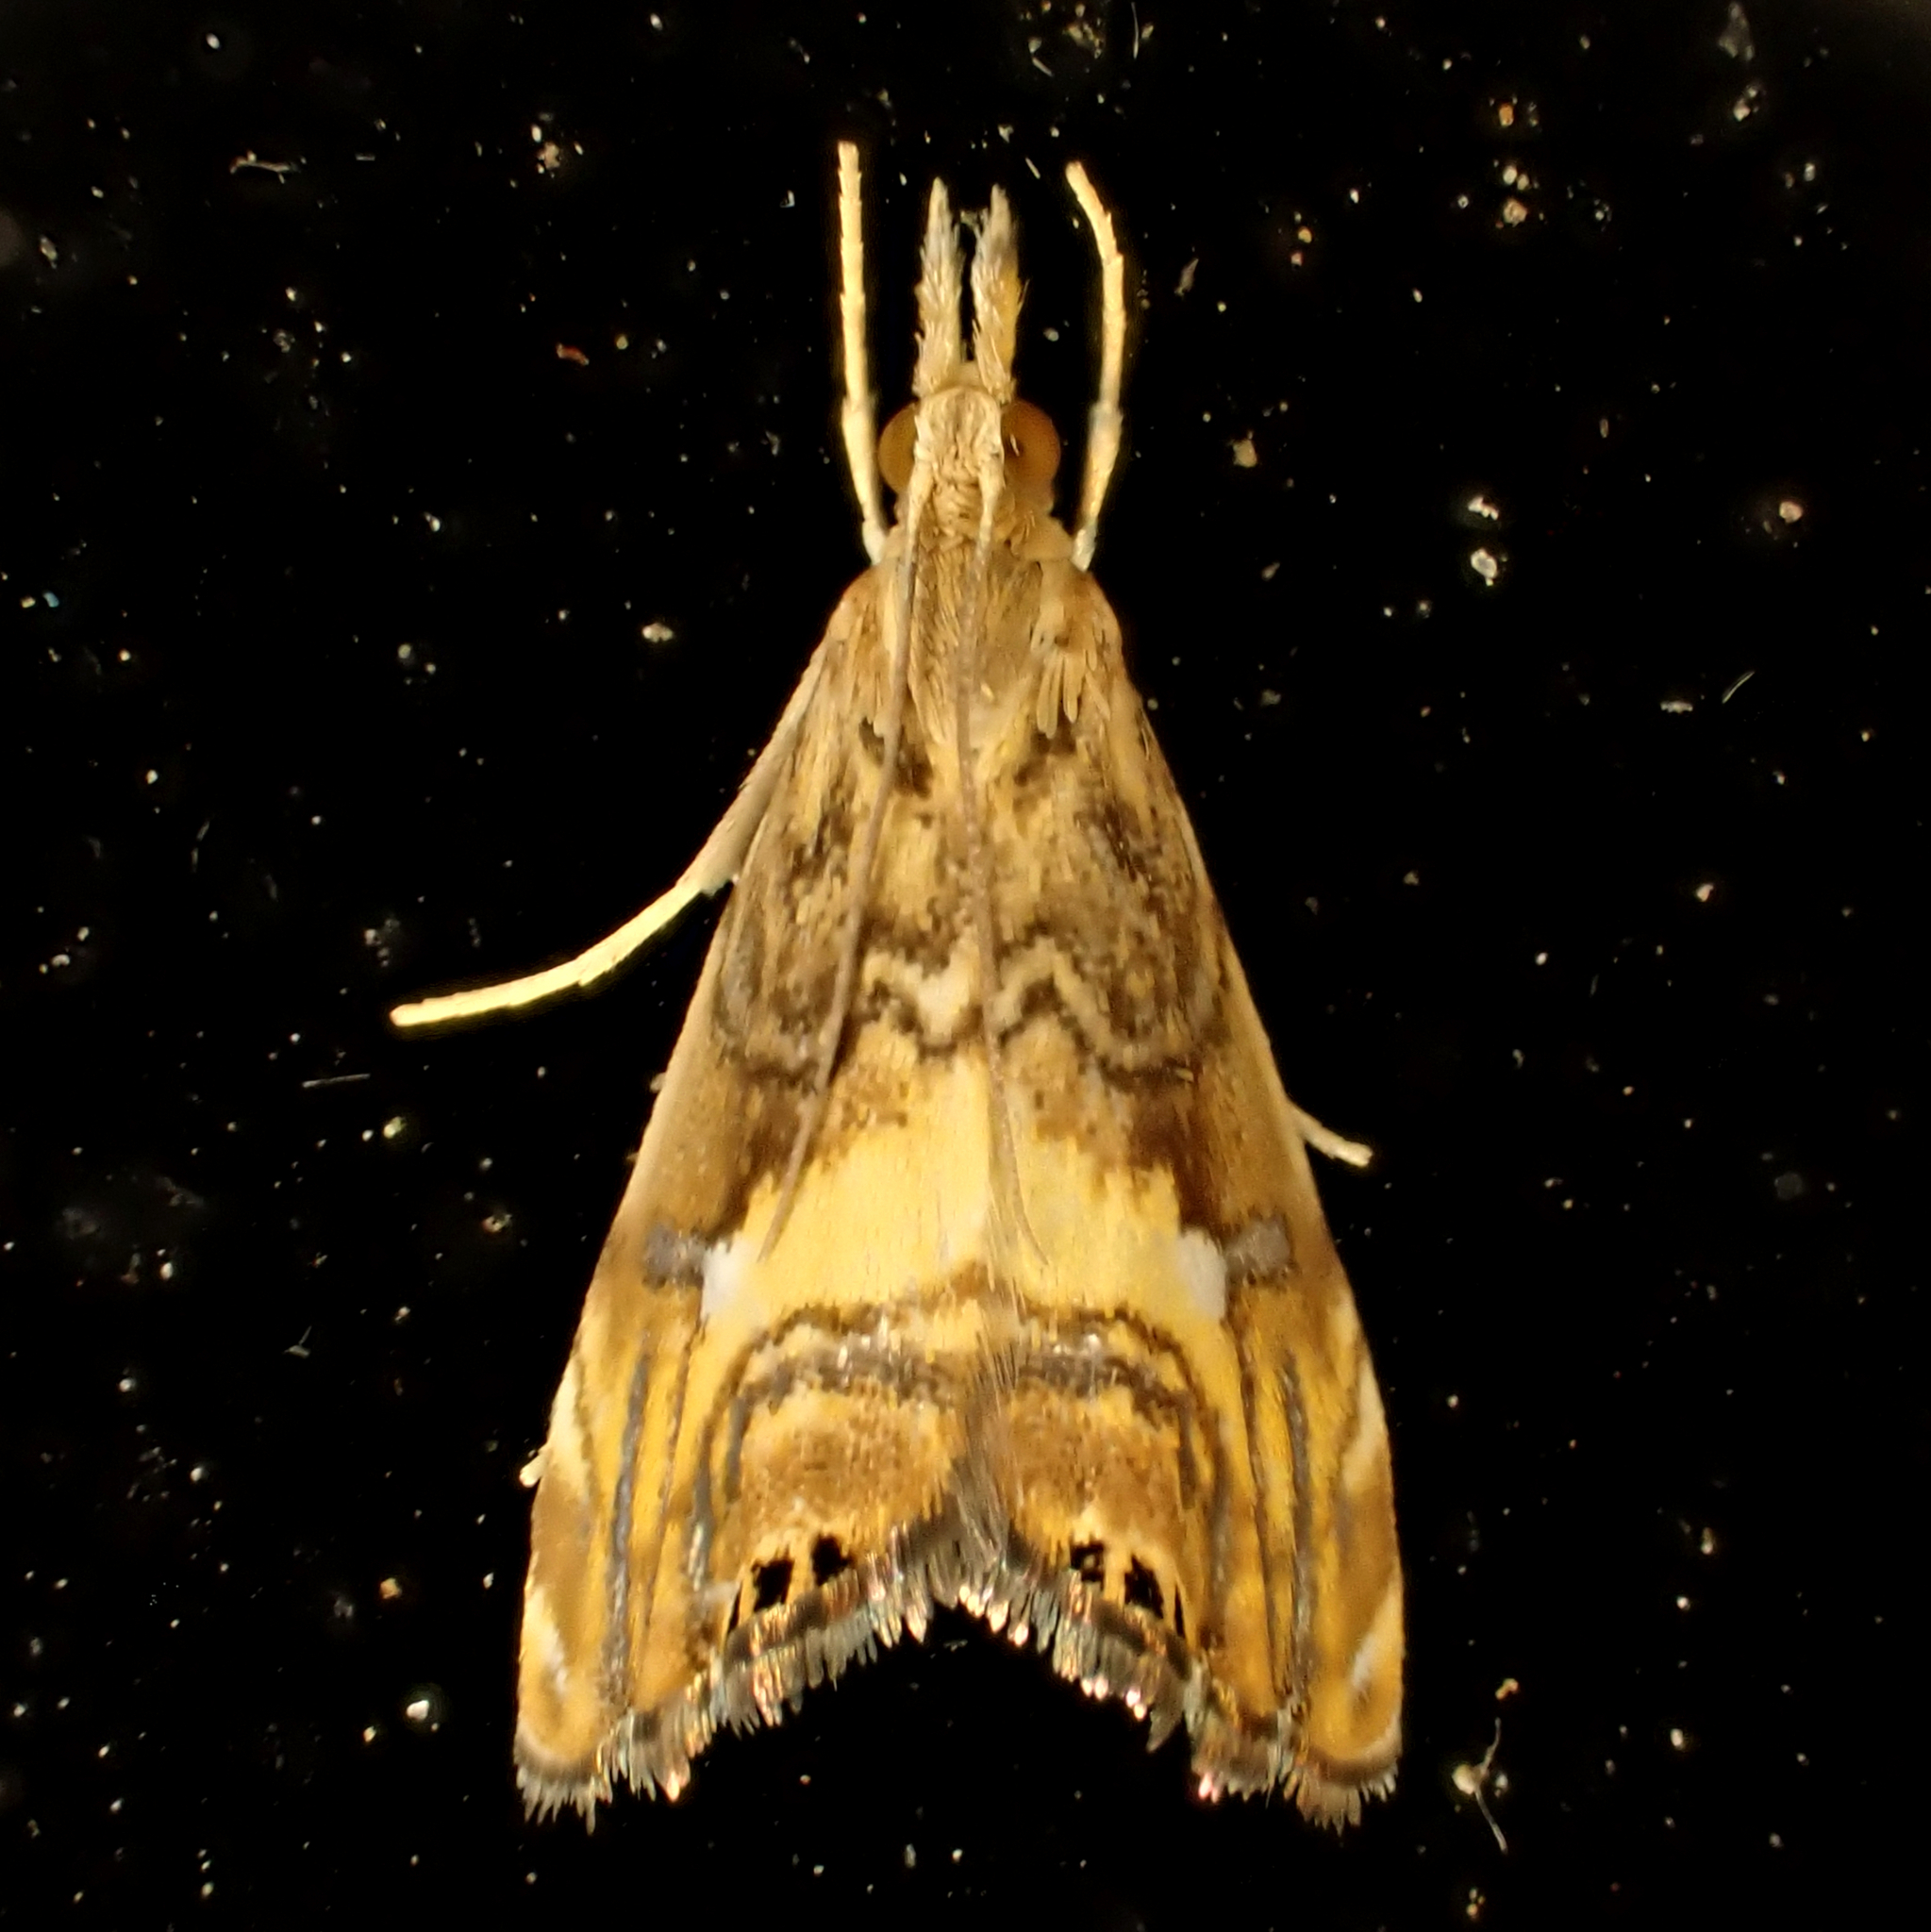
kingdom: Animalia
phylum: Arthropoda
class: Insecta
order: Lepidoptera
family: Crambidae
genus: Glaucocharis
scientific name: Glaucocharis chrysochyta
